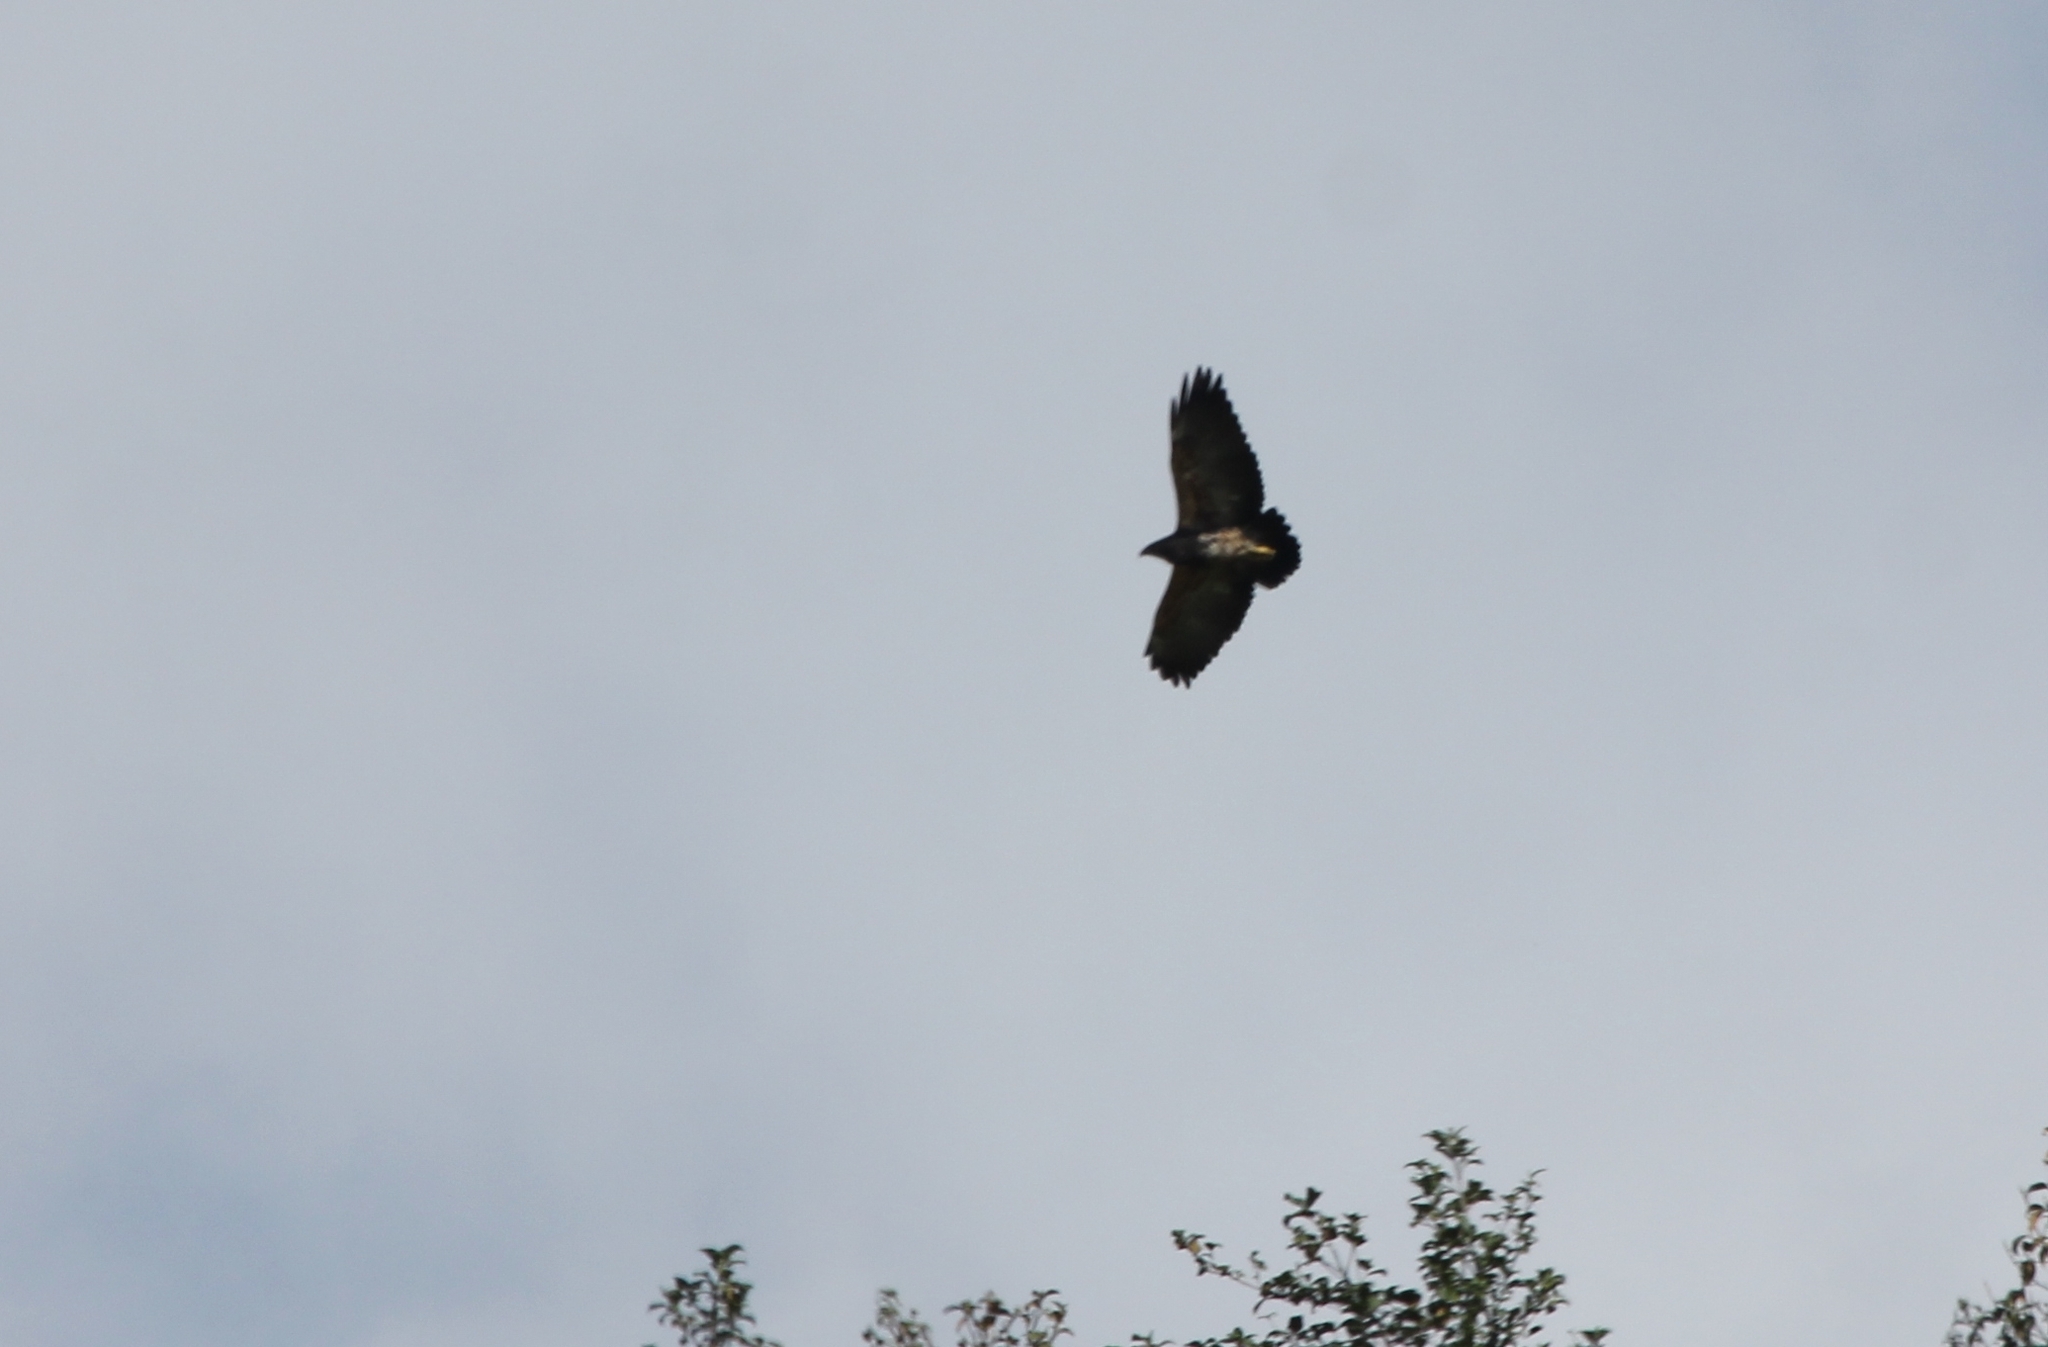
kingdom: Animalia
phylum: Chordata
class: Aves
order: Accipitriformes
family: Accipitridae
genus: Geranoaetus
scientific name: Geranoaetus melanoleucus
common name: Black-chested buzzard-eagle
